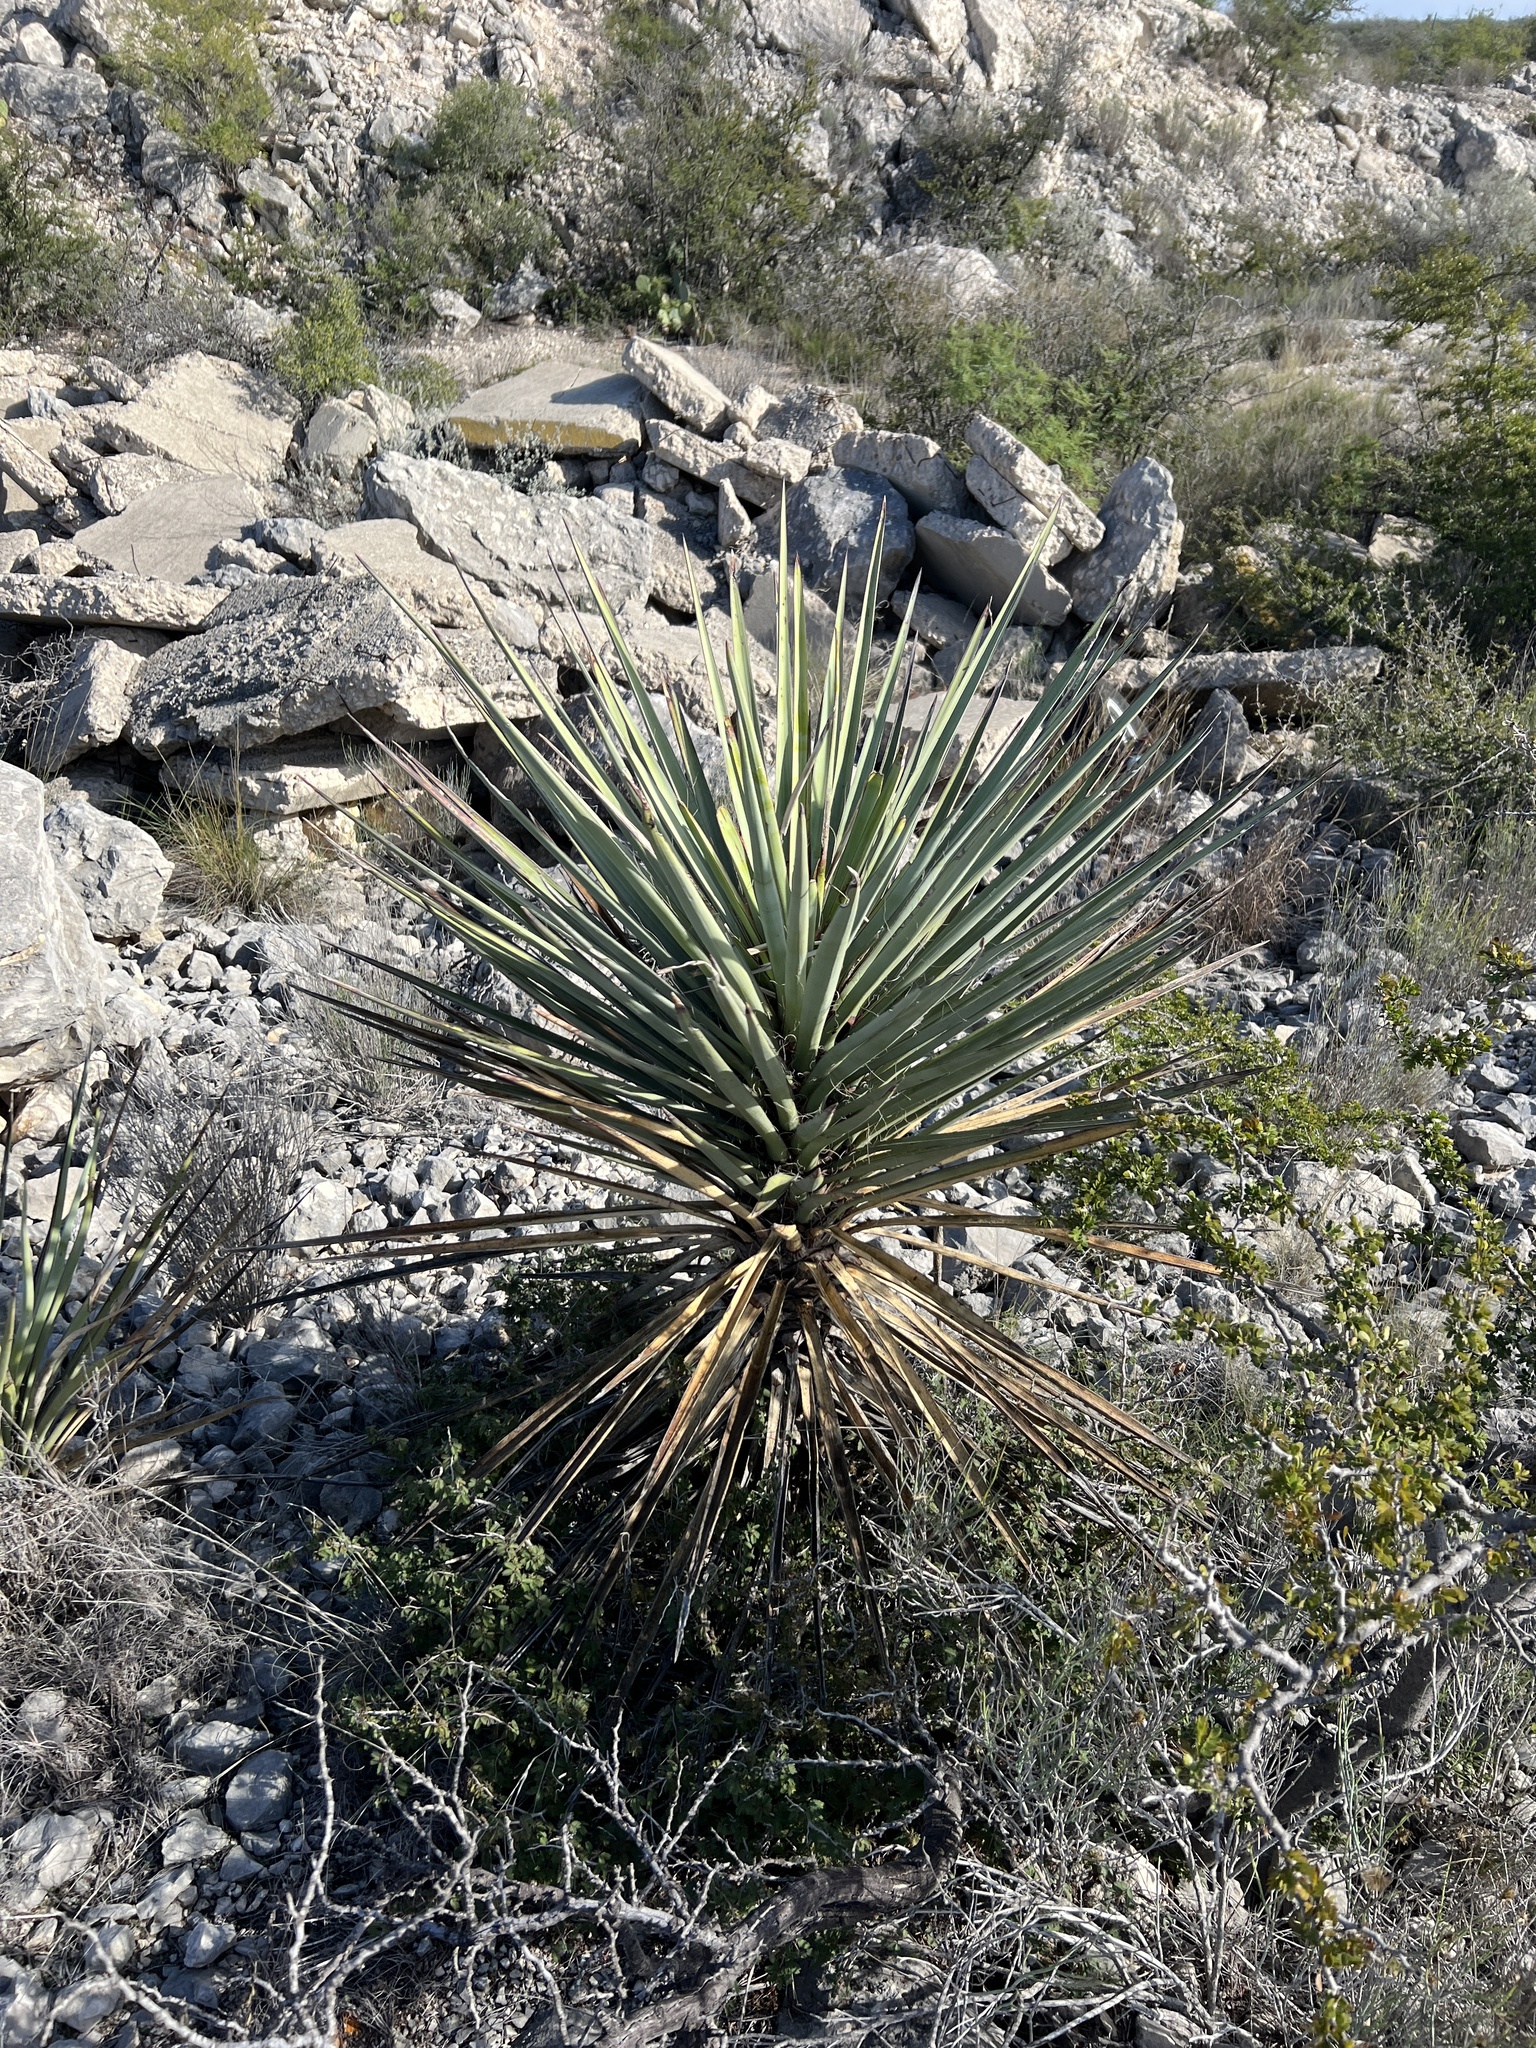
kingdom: Plantae
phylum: Tracheophyta
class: Liliopsida
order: Asparagales
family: Asparagaceae
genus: Yucca
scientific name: Yucca treculiana
